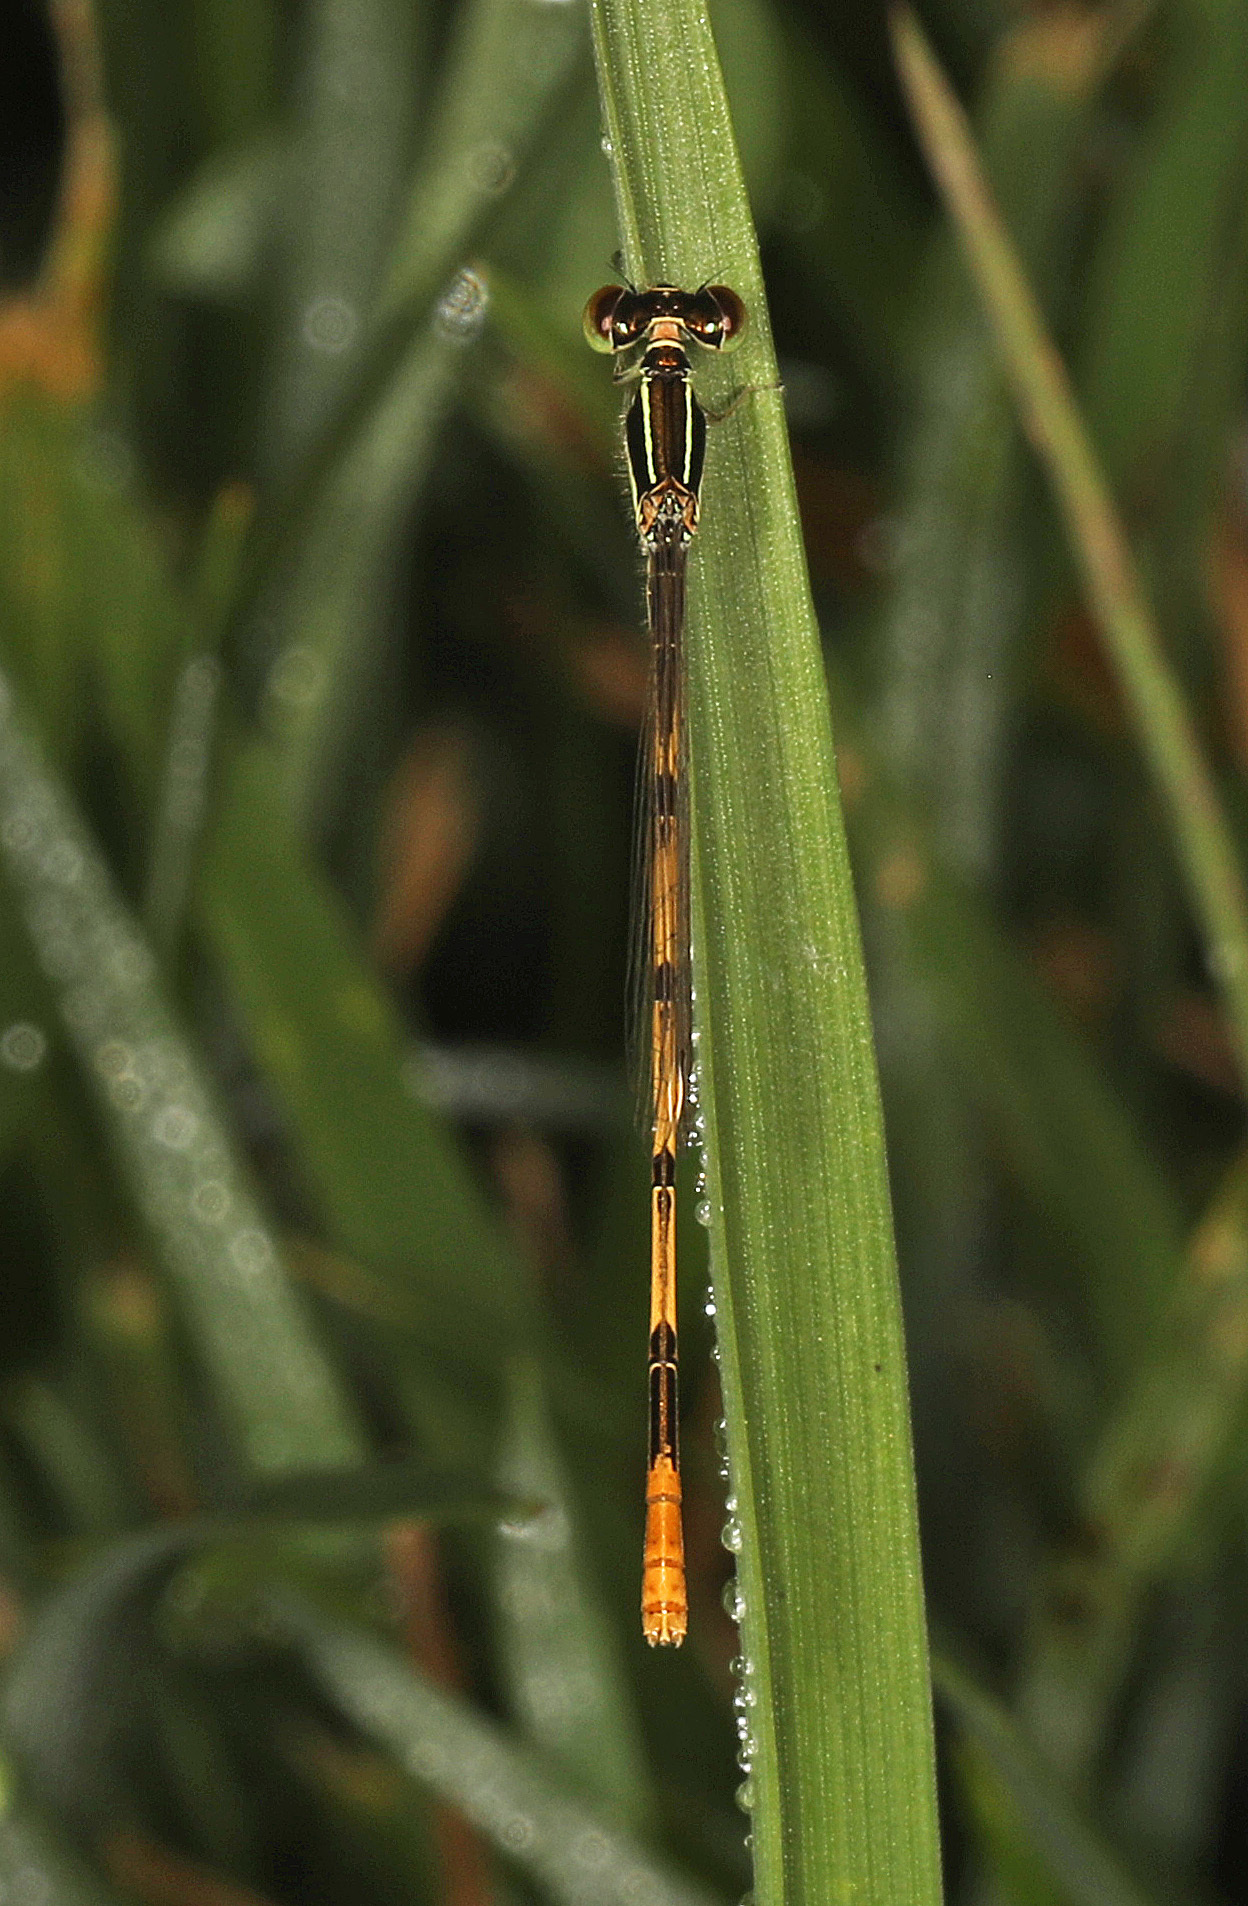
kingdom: Animalia
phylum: Arthropoda
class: Insecta
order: Odonata
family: Coenagrionidae
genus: Ischnura
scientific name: Ischnura hastata
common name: Citrine forktail
